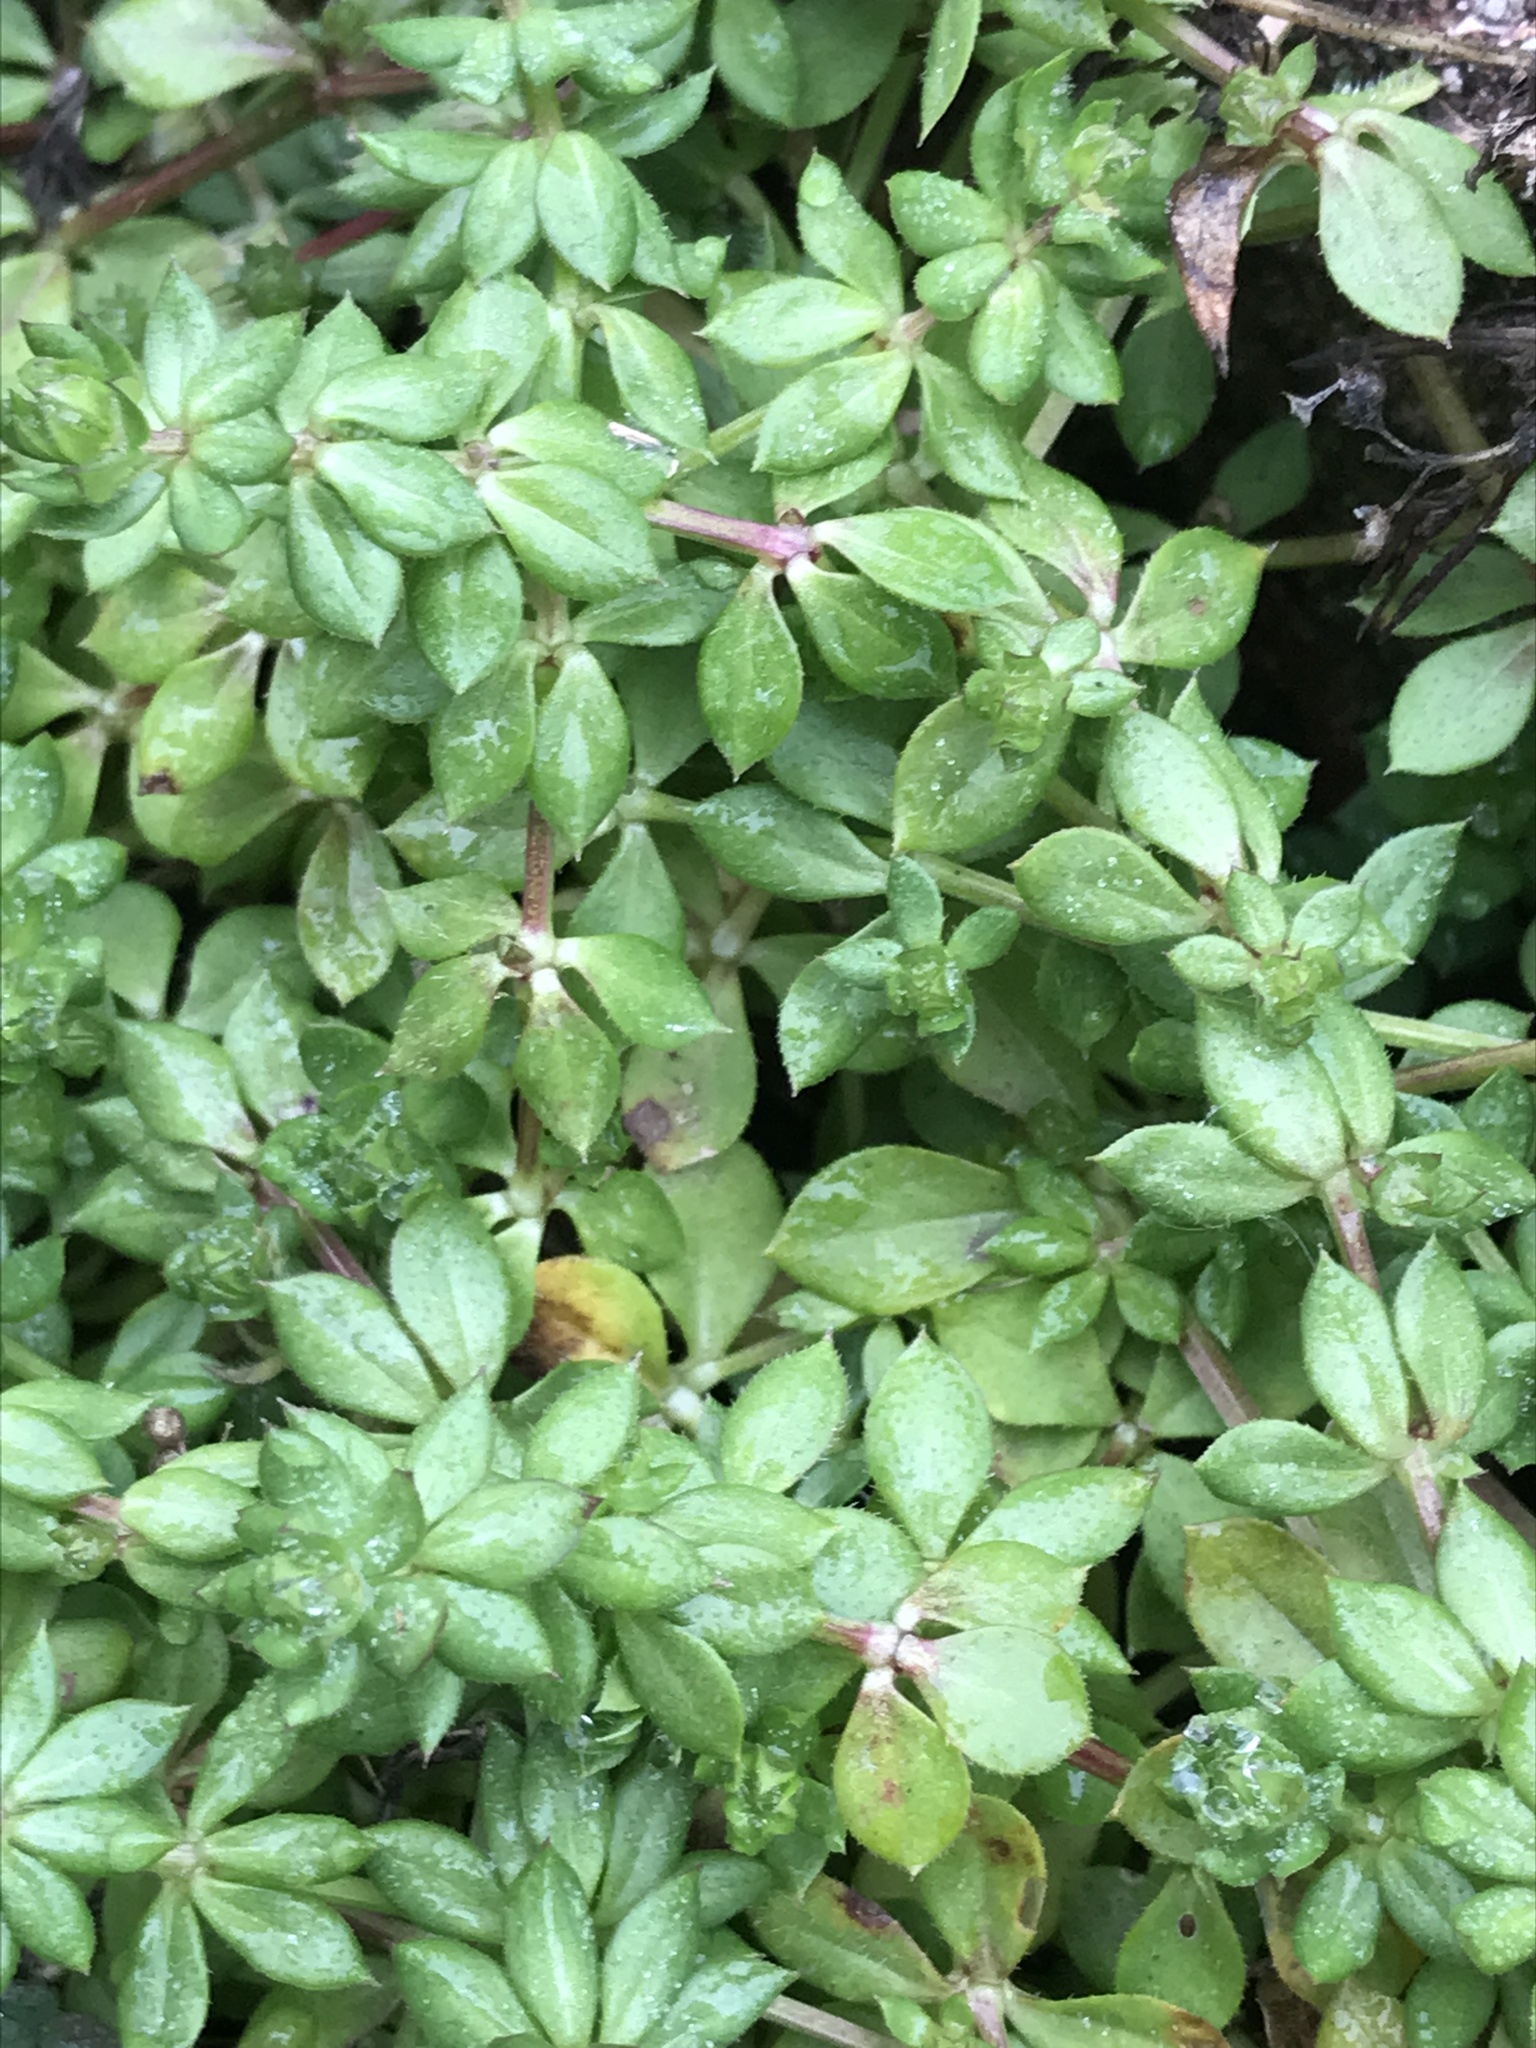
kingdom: Plantae
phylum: Tracheophyta
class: Magnoliopsida
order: Gentianales
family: Rubiaceae
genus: Sherardia
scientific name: Sherardia arvensis
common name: Field madder
